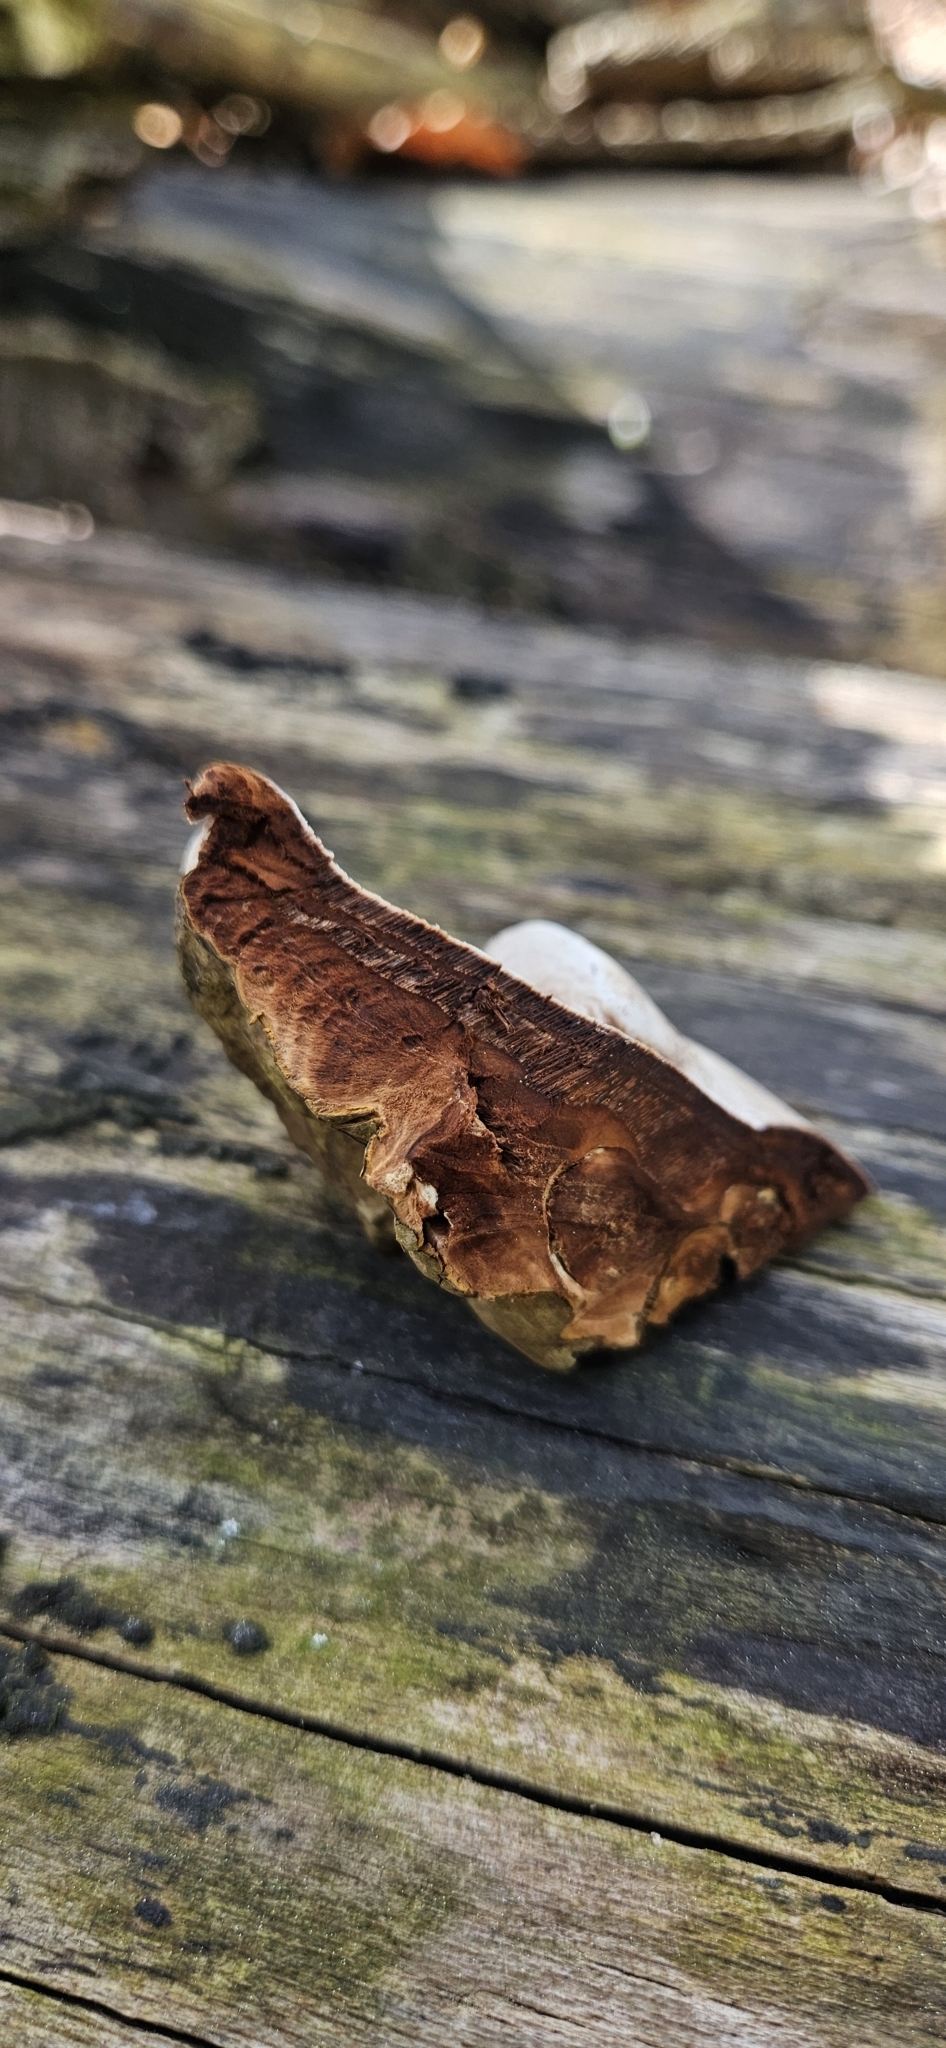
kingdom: Fungi
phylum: Basidiomycota
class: Agaricomycetes
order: Polyporales
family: Polyporaceae
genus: Fomes
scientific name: Fomes fomentarius
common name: Hoof fungus
